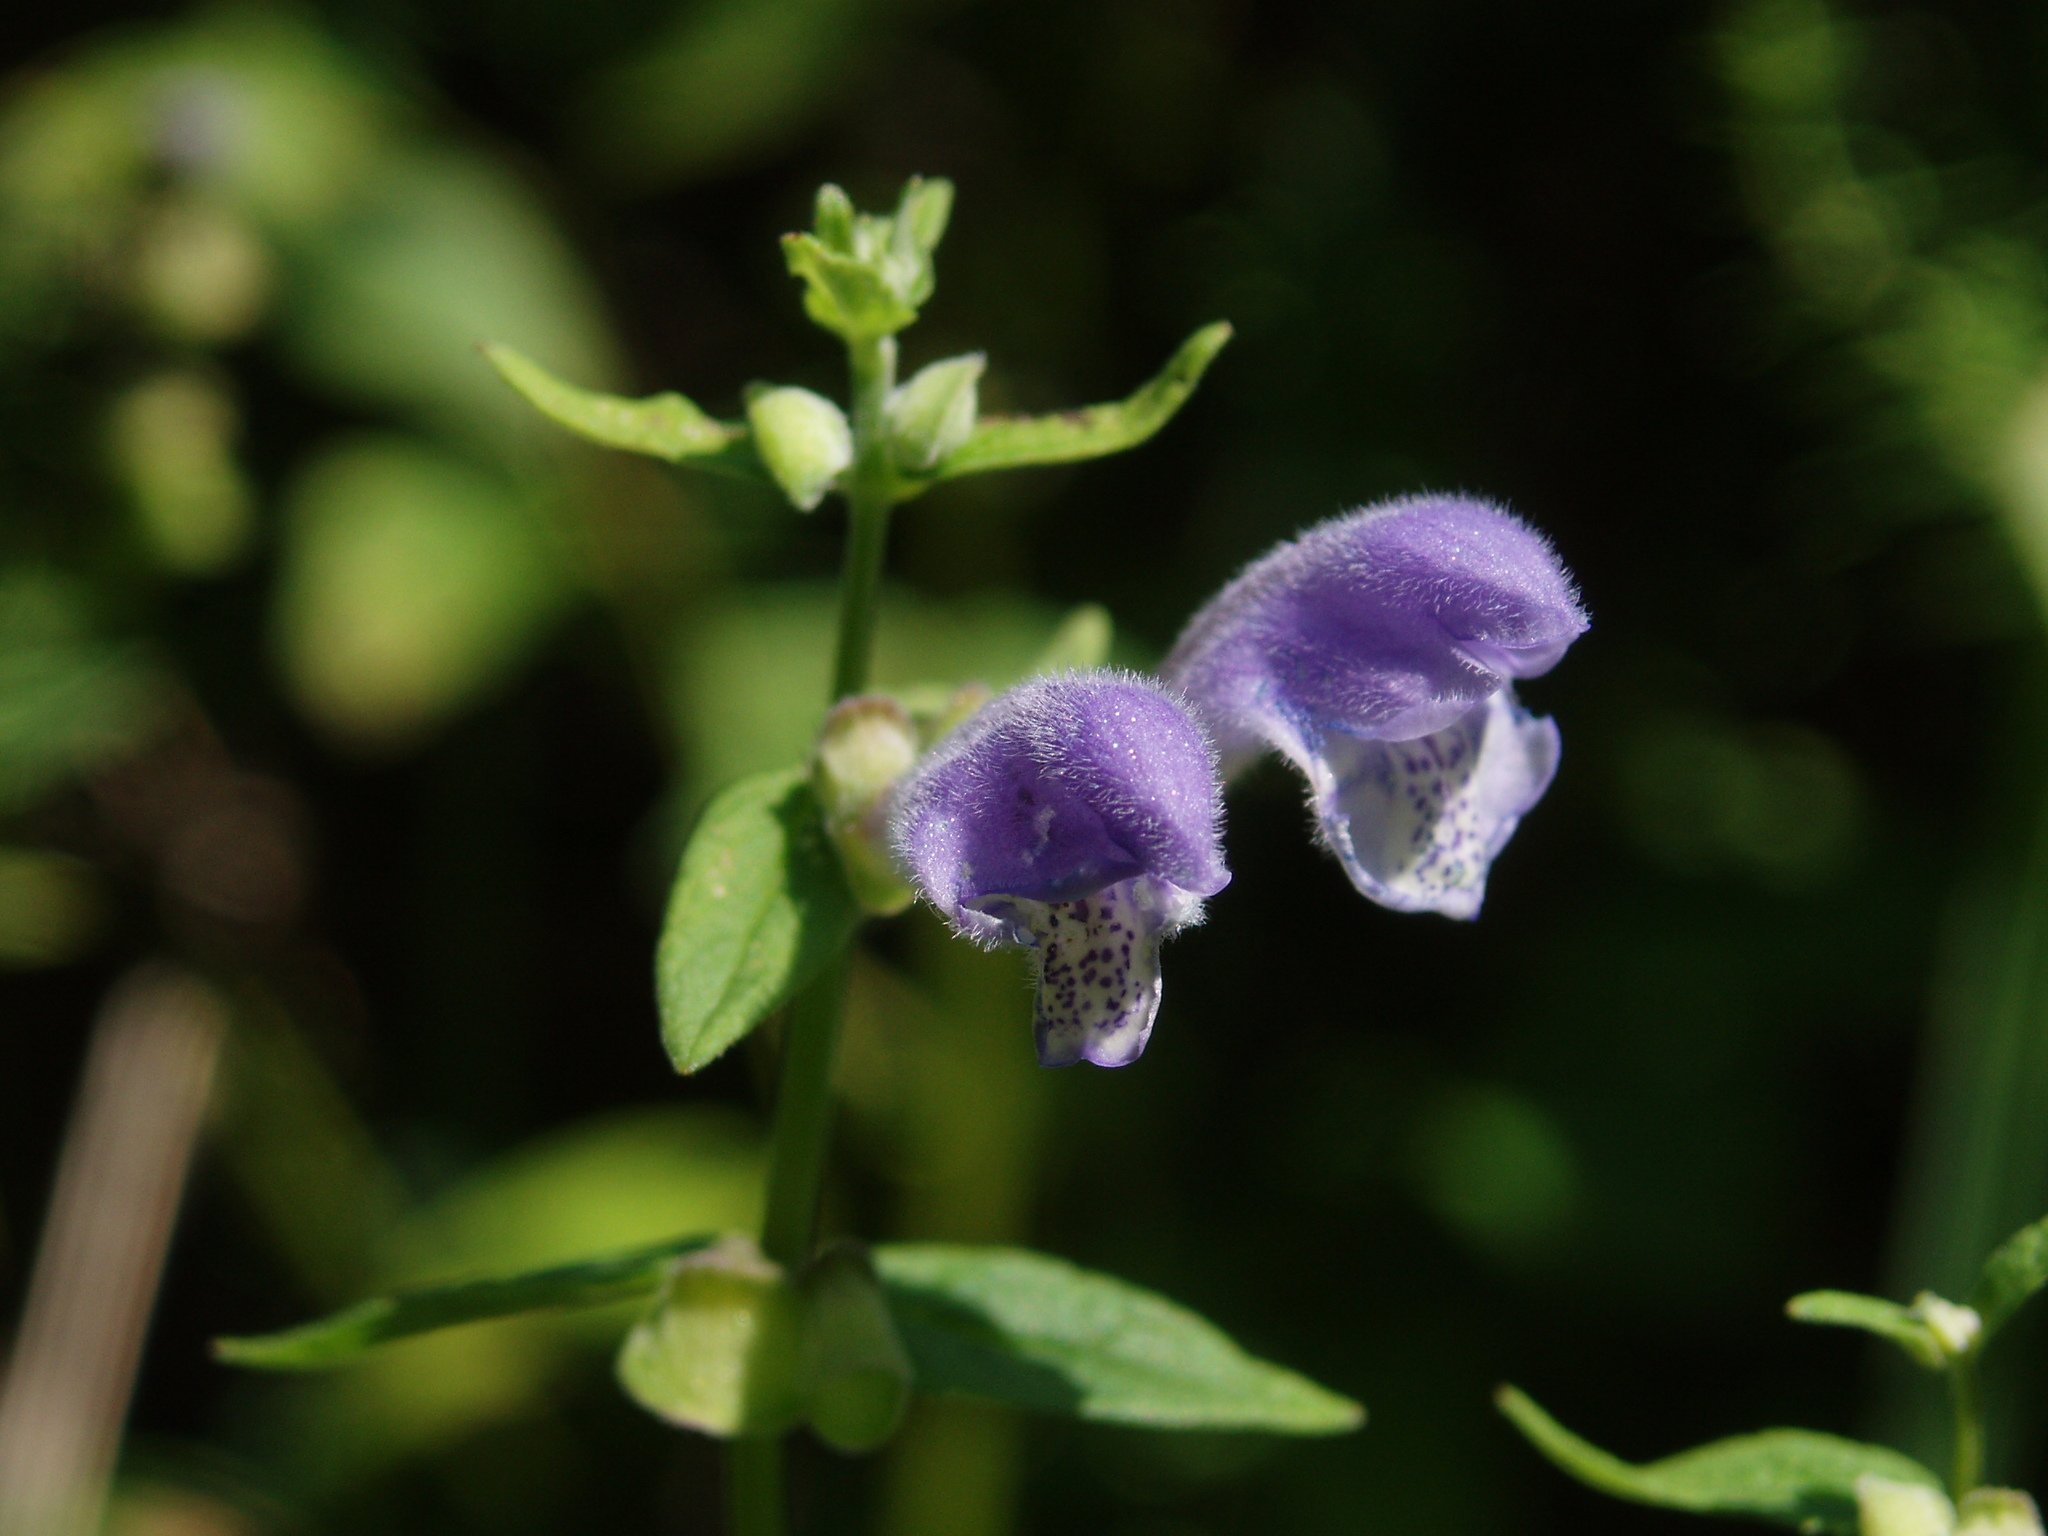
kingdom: Plantae
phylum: Tracheophyta
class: Magnoliopsida
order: Lamiales
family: Lamiaceae
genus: Scutellaria
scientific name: Scutellaria galericulata
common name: Skullcap
